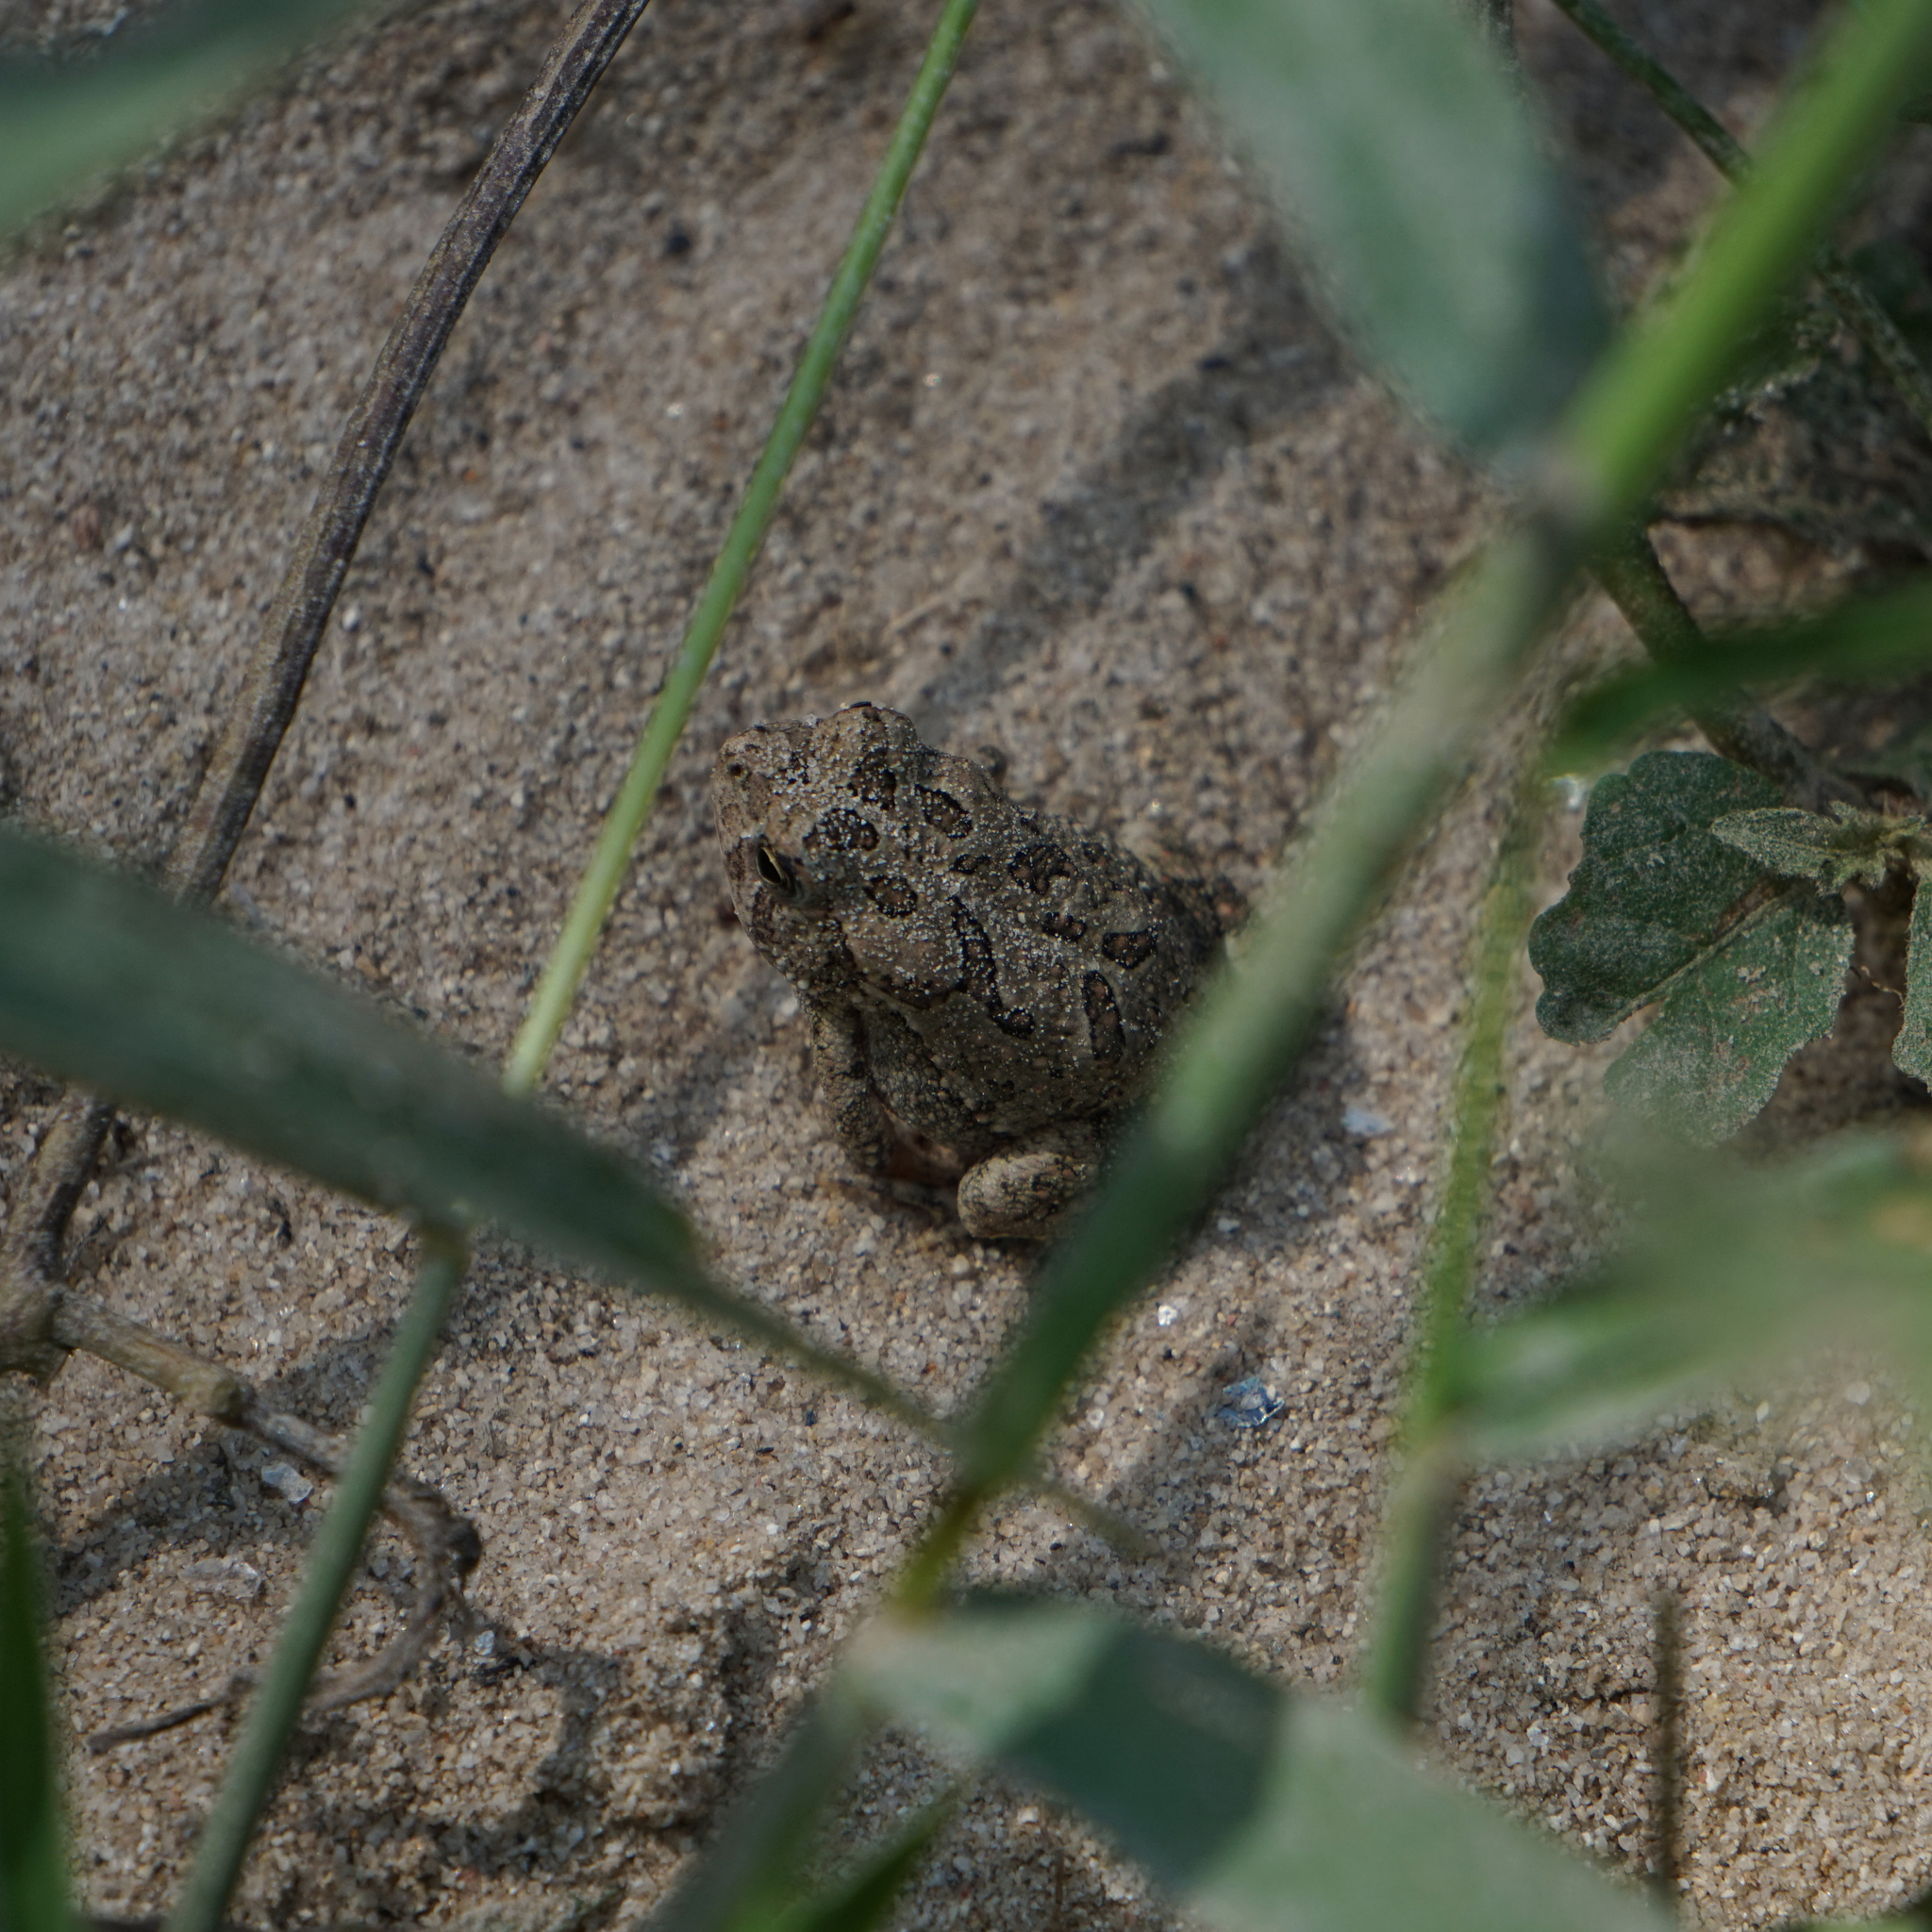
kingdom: Animalia
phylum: Chordata
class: Amphibia
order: Anura
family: Bufonidae
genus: Anaxyrus
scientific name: Anaxyrus fowleri
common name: Fowler's toad
